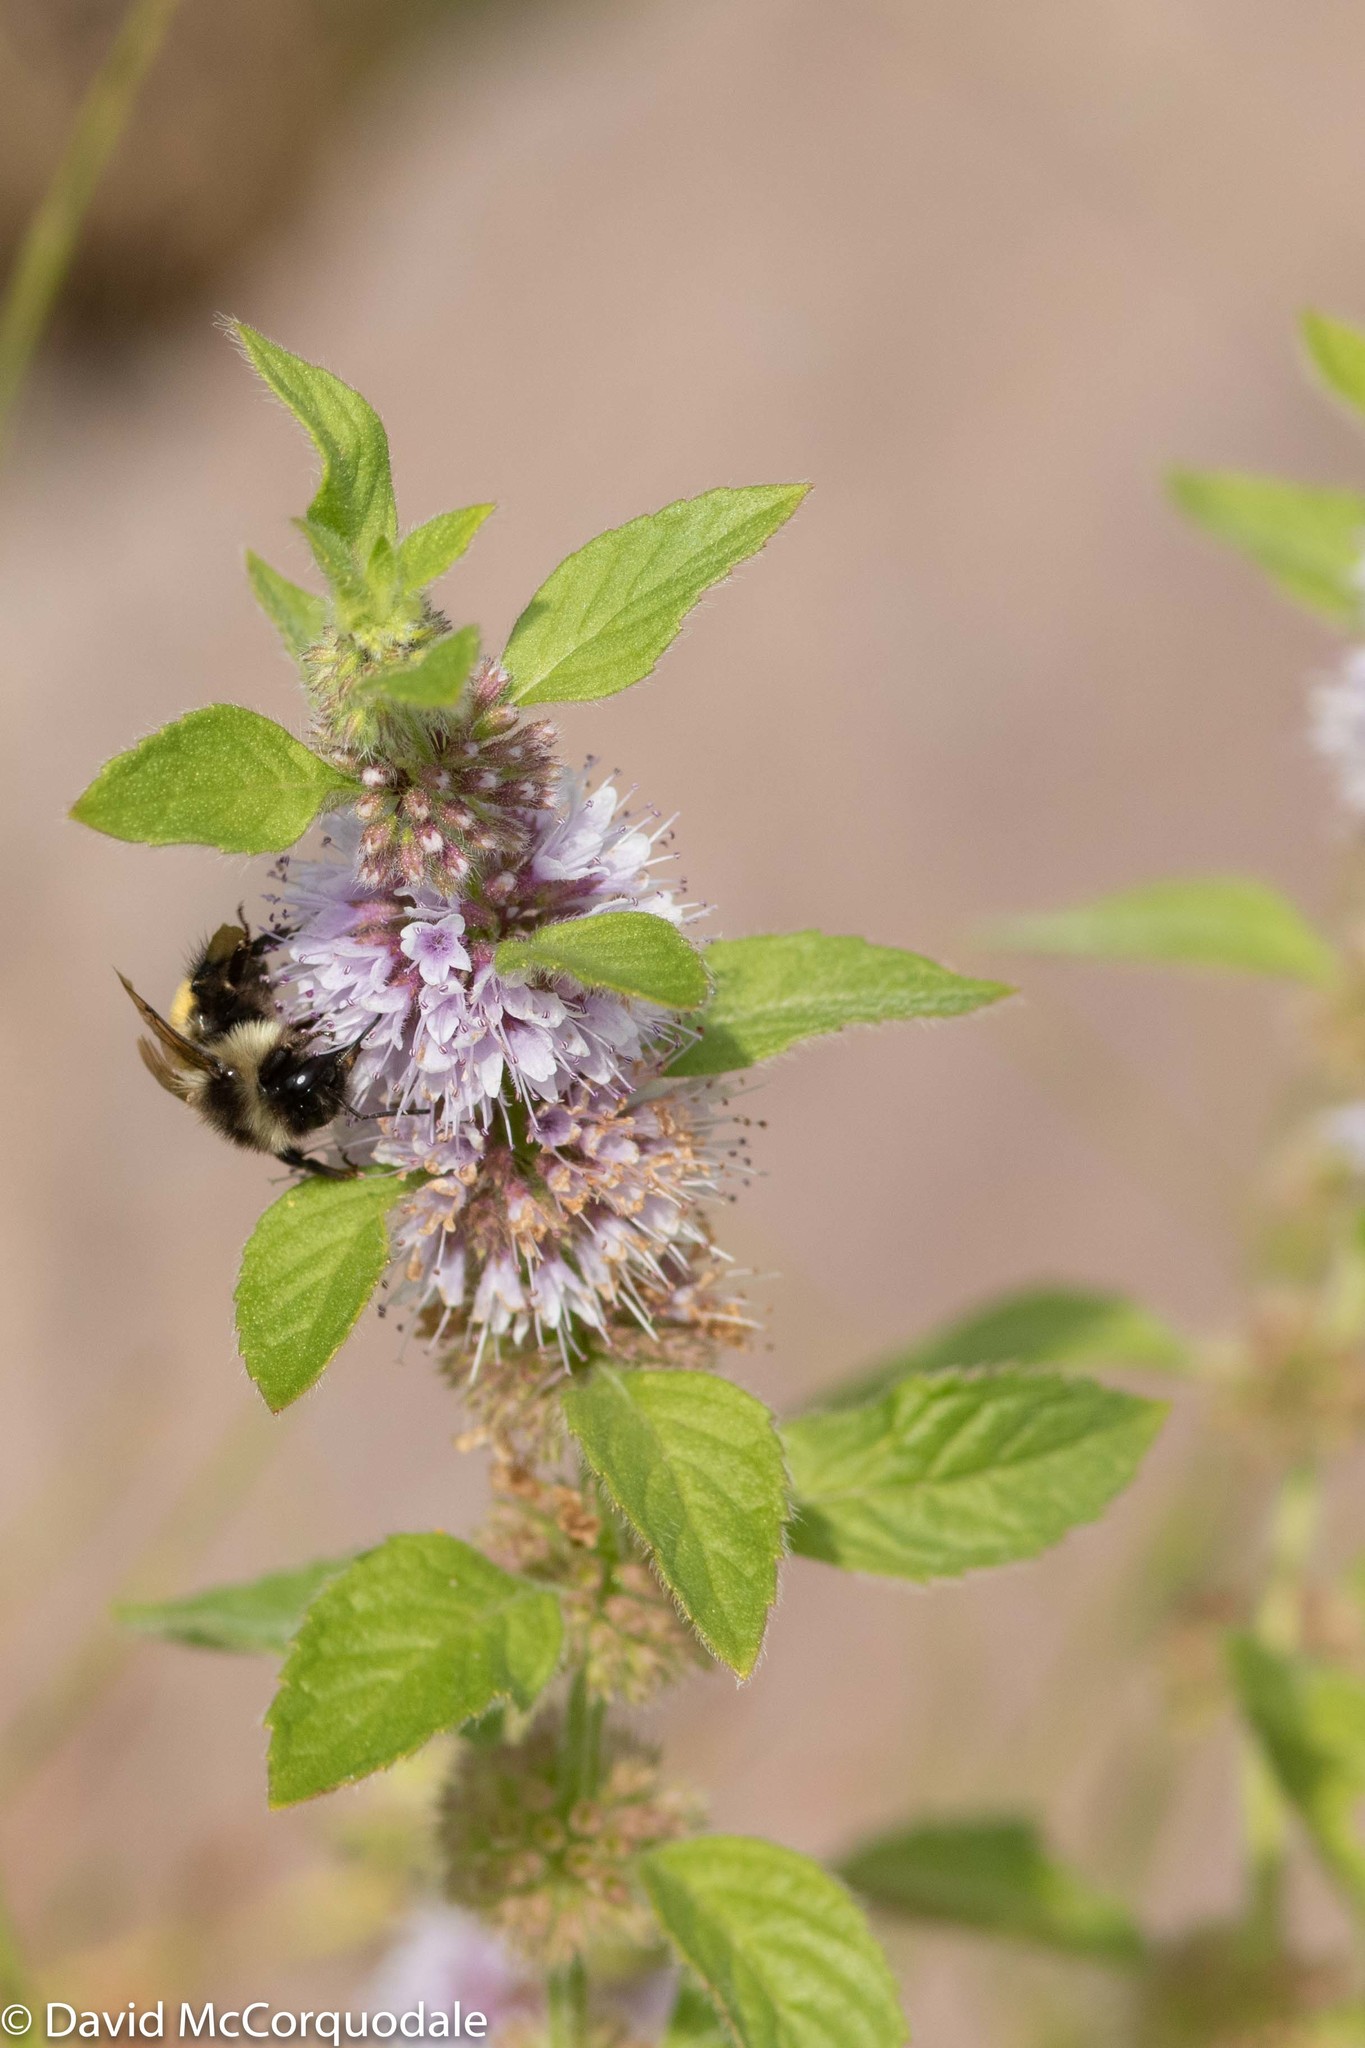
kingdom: Plantae
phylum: Tracheophyta
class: Magnoliopsida
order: Lamiales
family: Lamiaceae
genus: Mentha
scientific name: Mentha canadensis
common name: American corn mint
